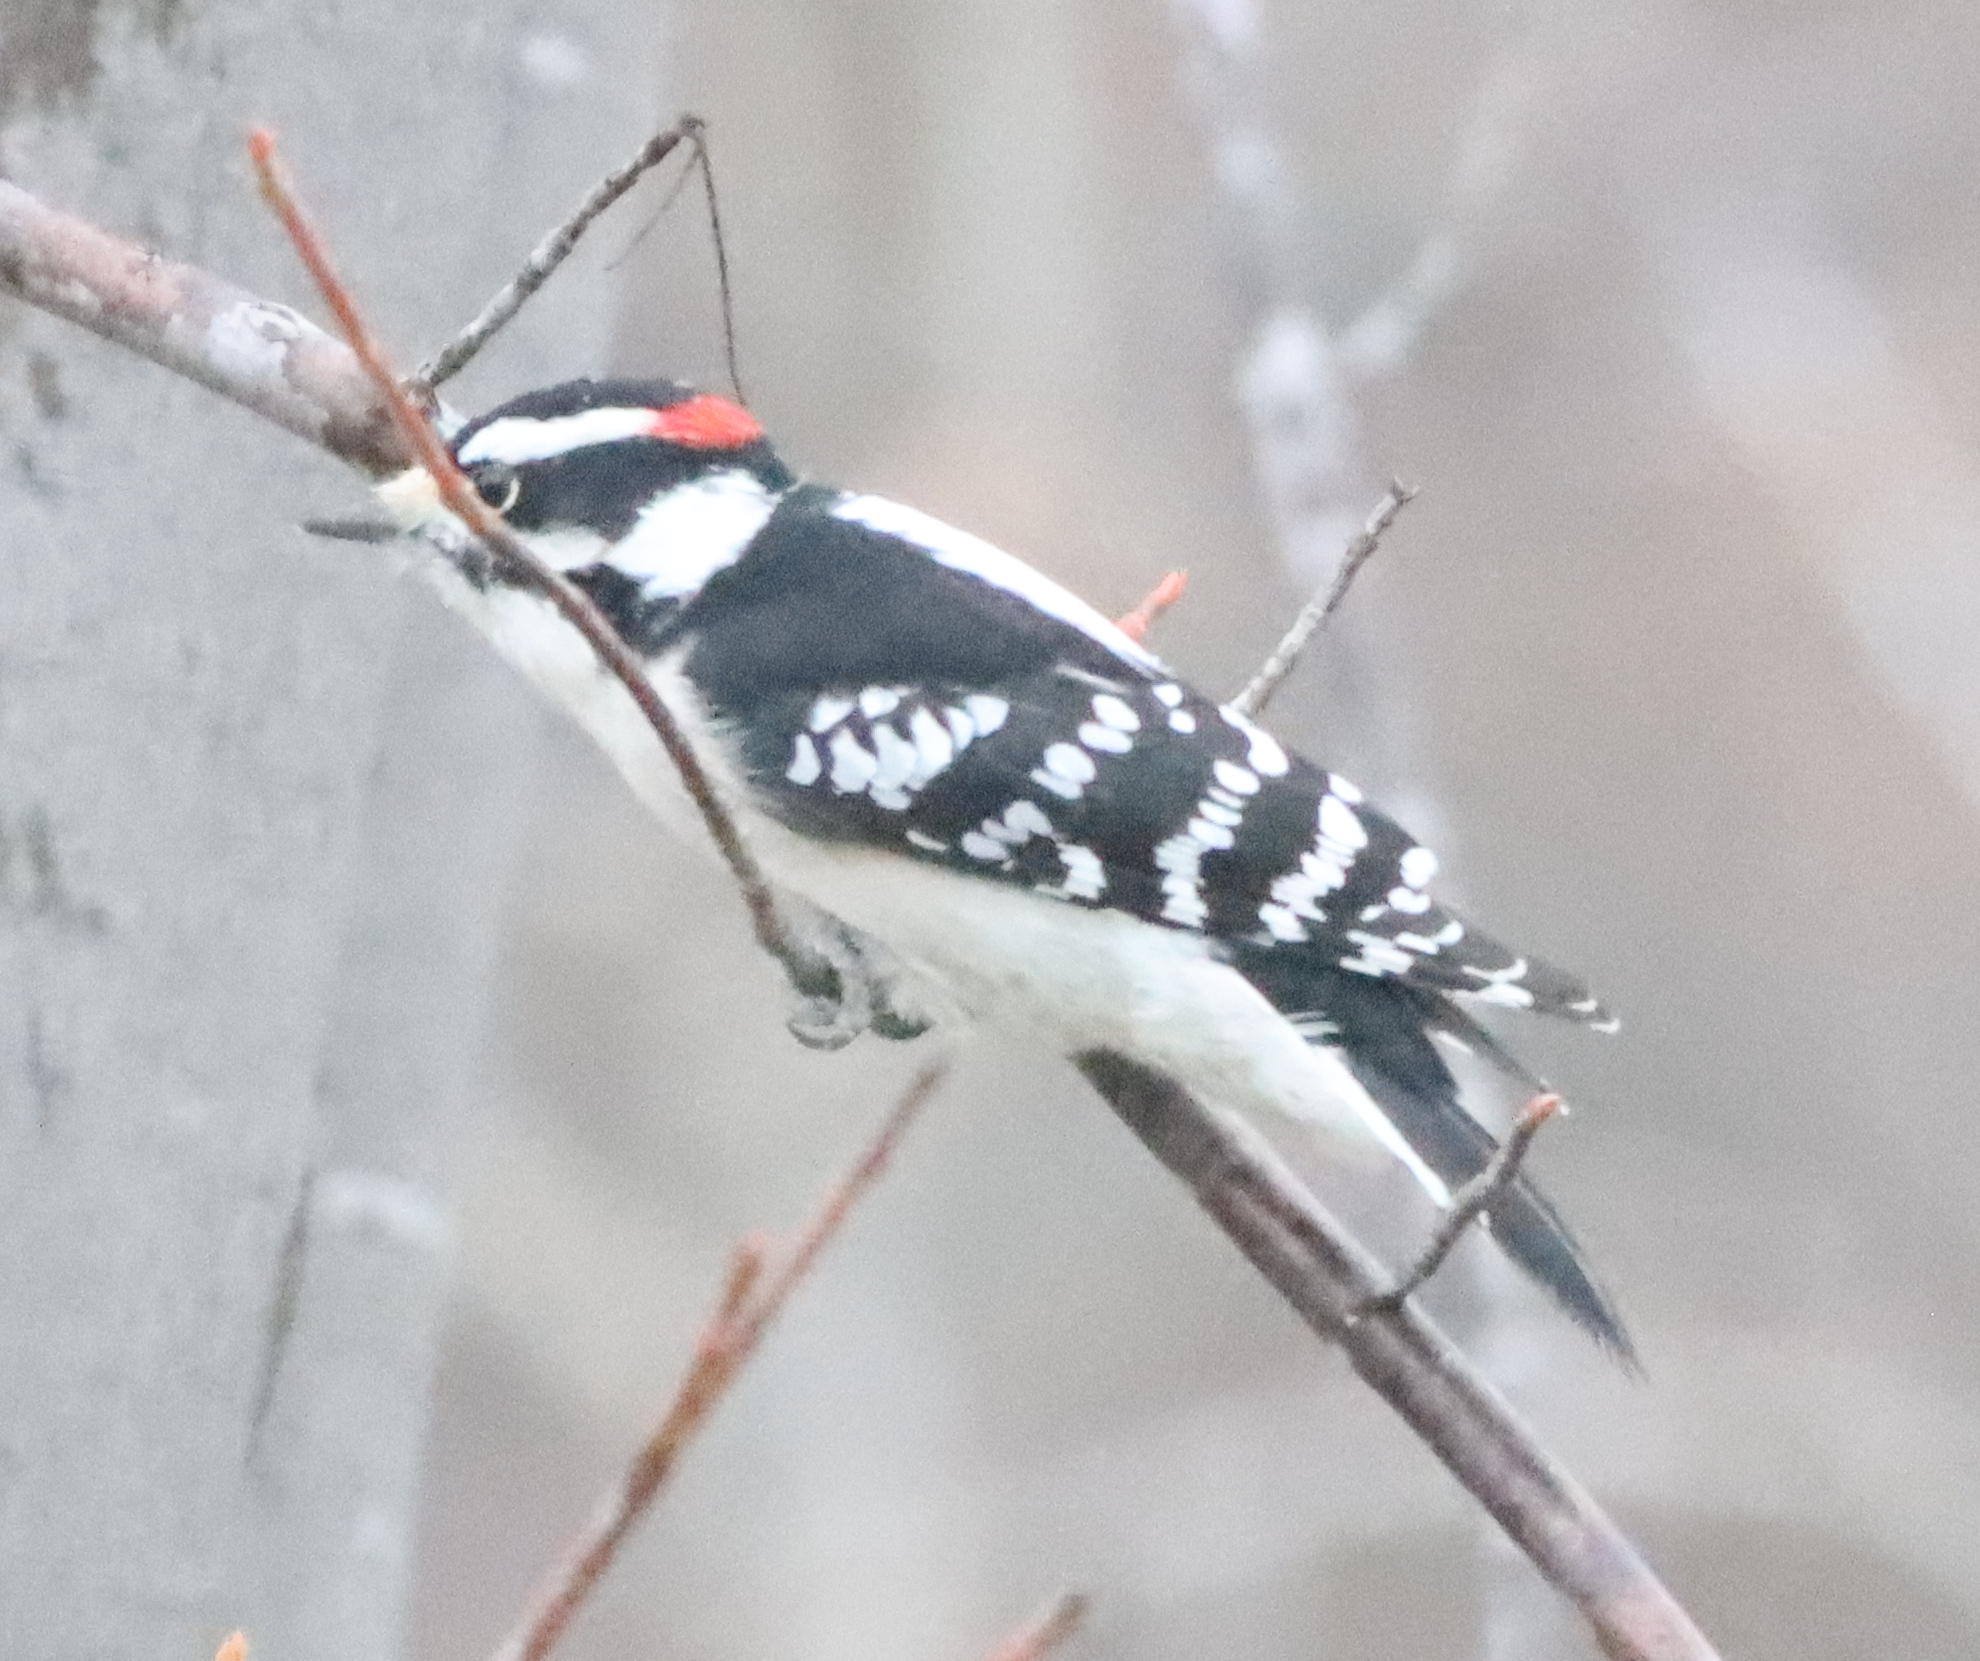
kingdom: Animalia
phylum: Chordata
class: Aves
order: Piciformes
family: Picidae
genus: Dryobates
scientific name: Dryobates pubescens
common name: Downy woodpecker
